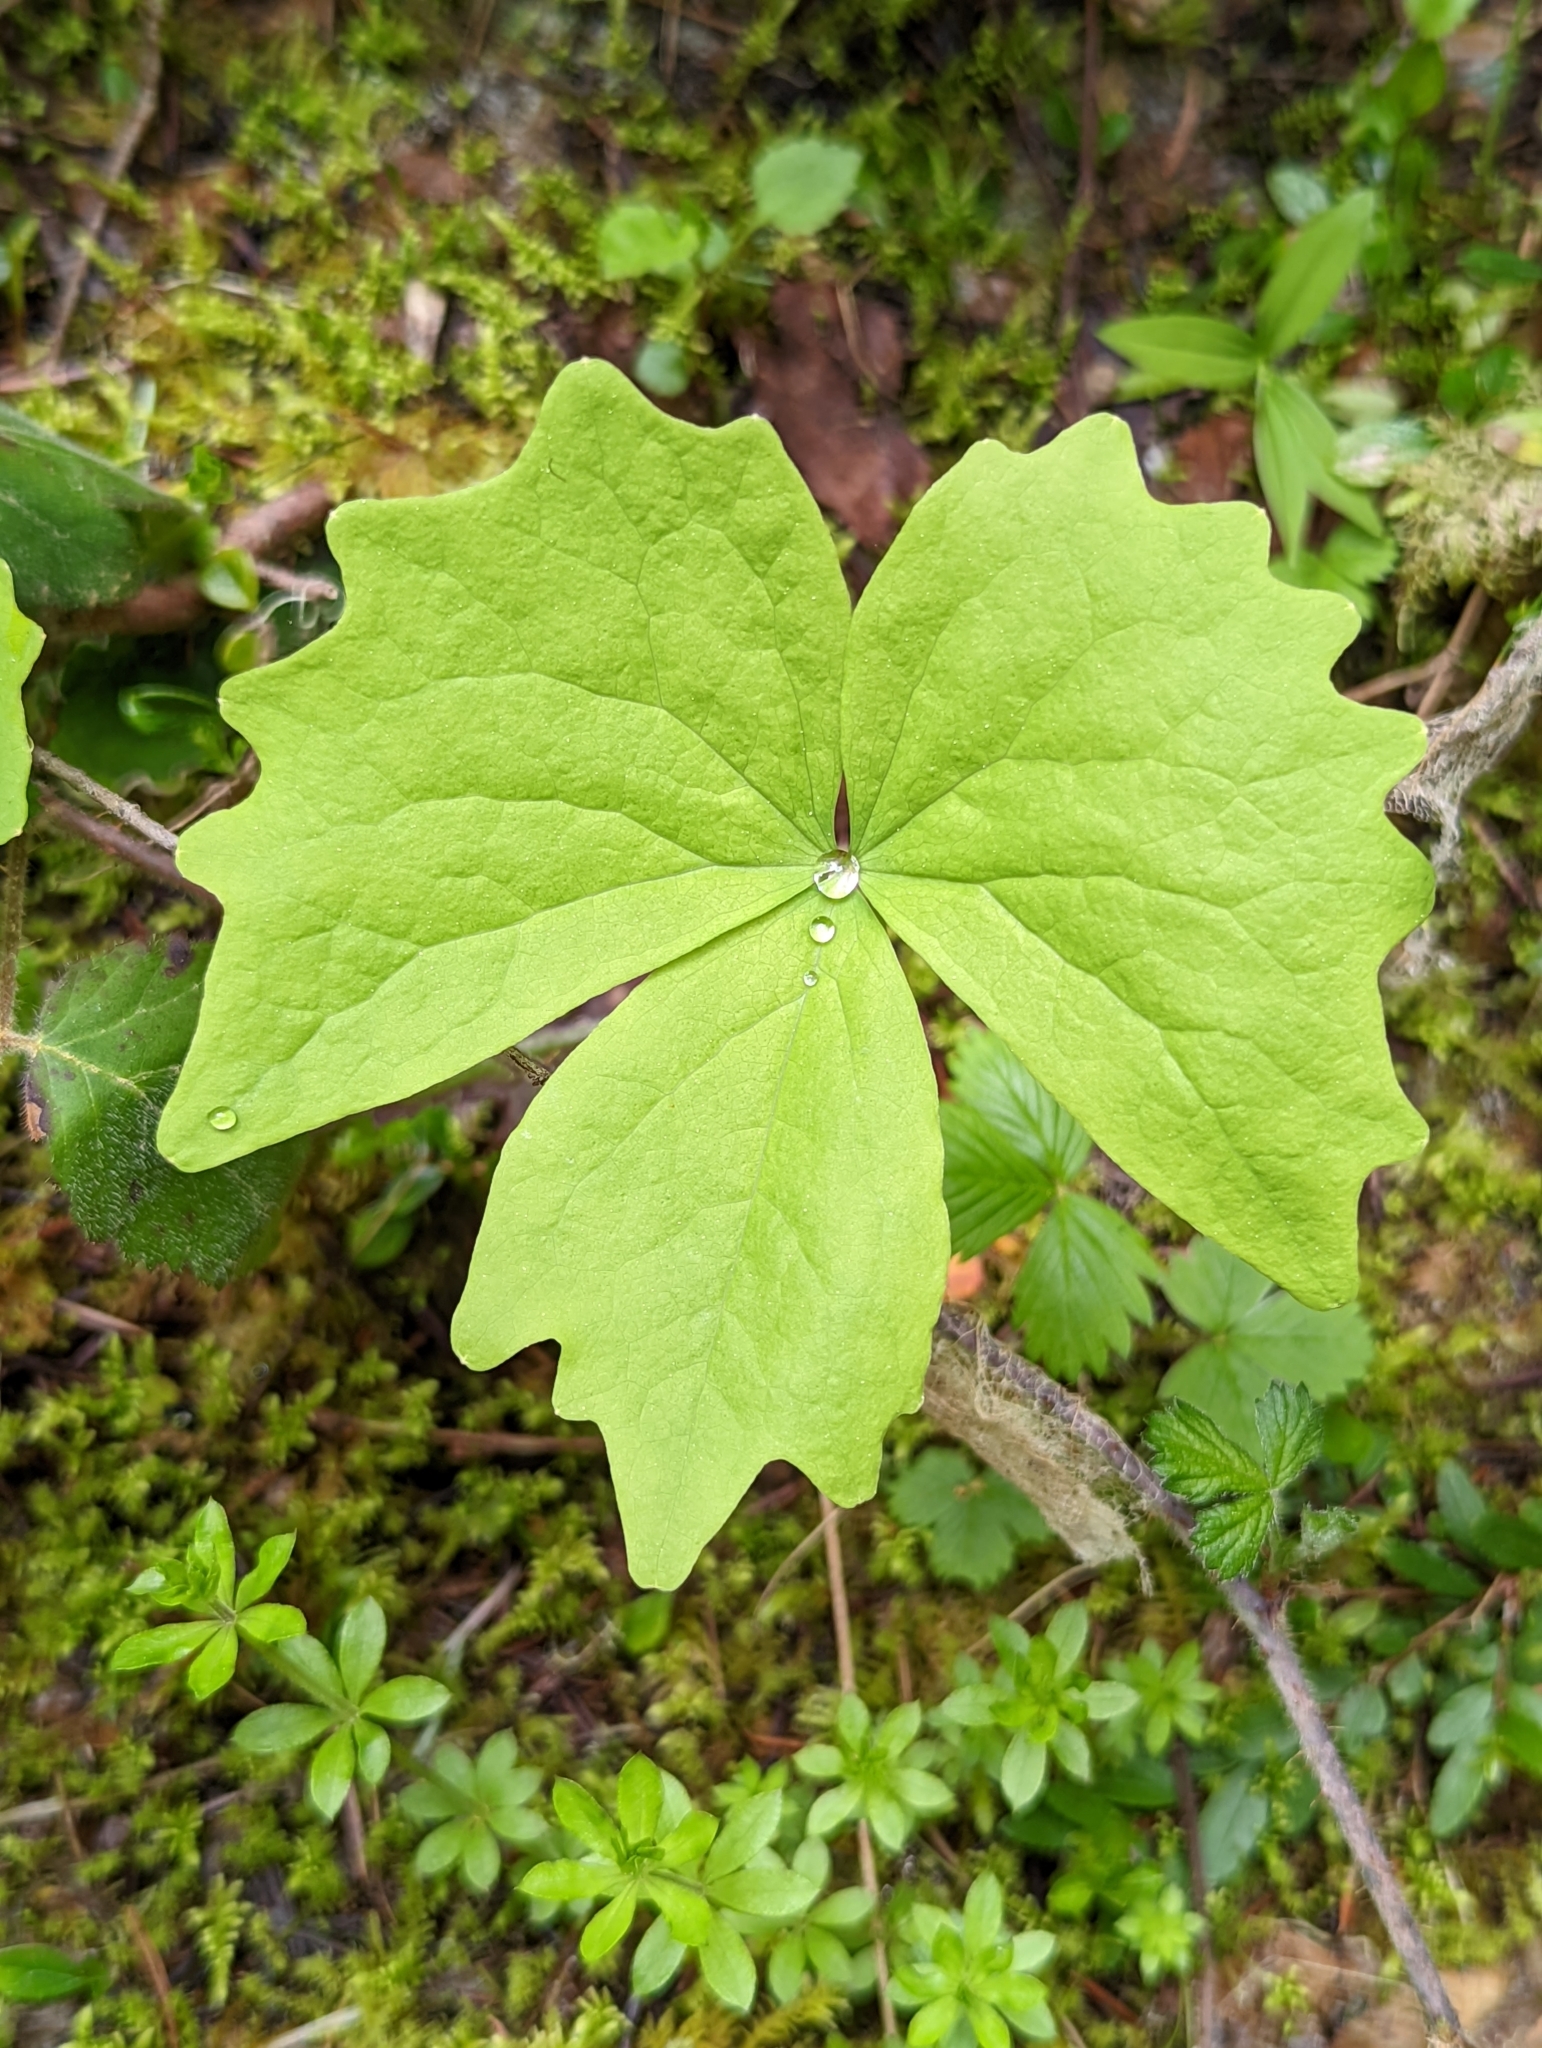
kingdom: Plantae
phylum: Tracheophyta
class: Magnoliopsida
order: Ranunculales
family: Berberidaceae
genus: Achlys
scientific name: Achlys triphylla
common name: Vanilla-leaf
